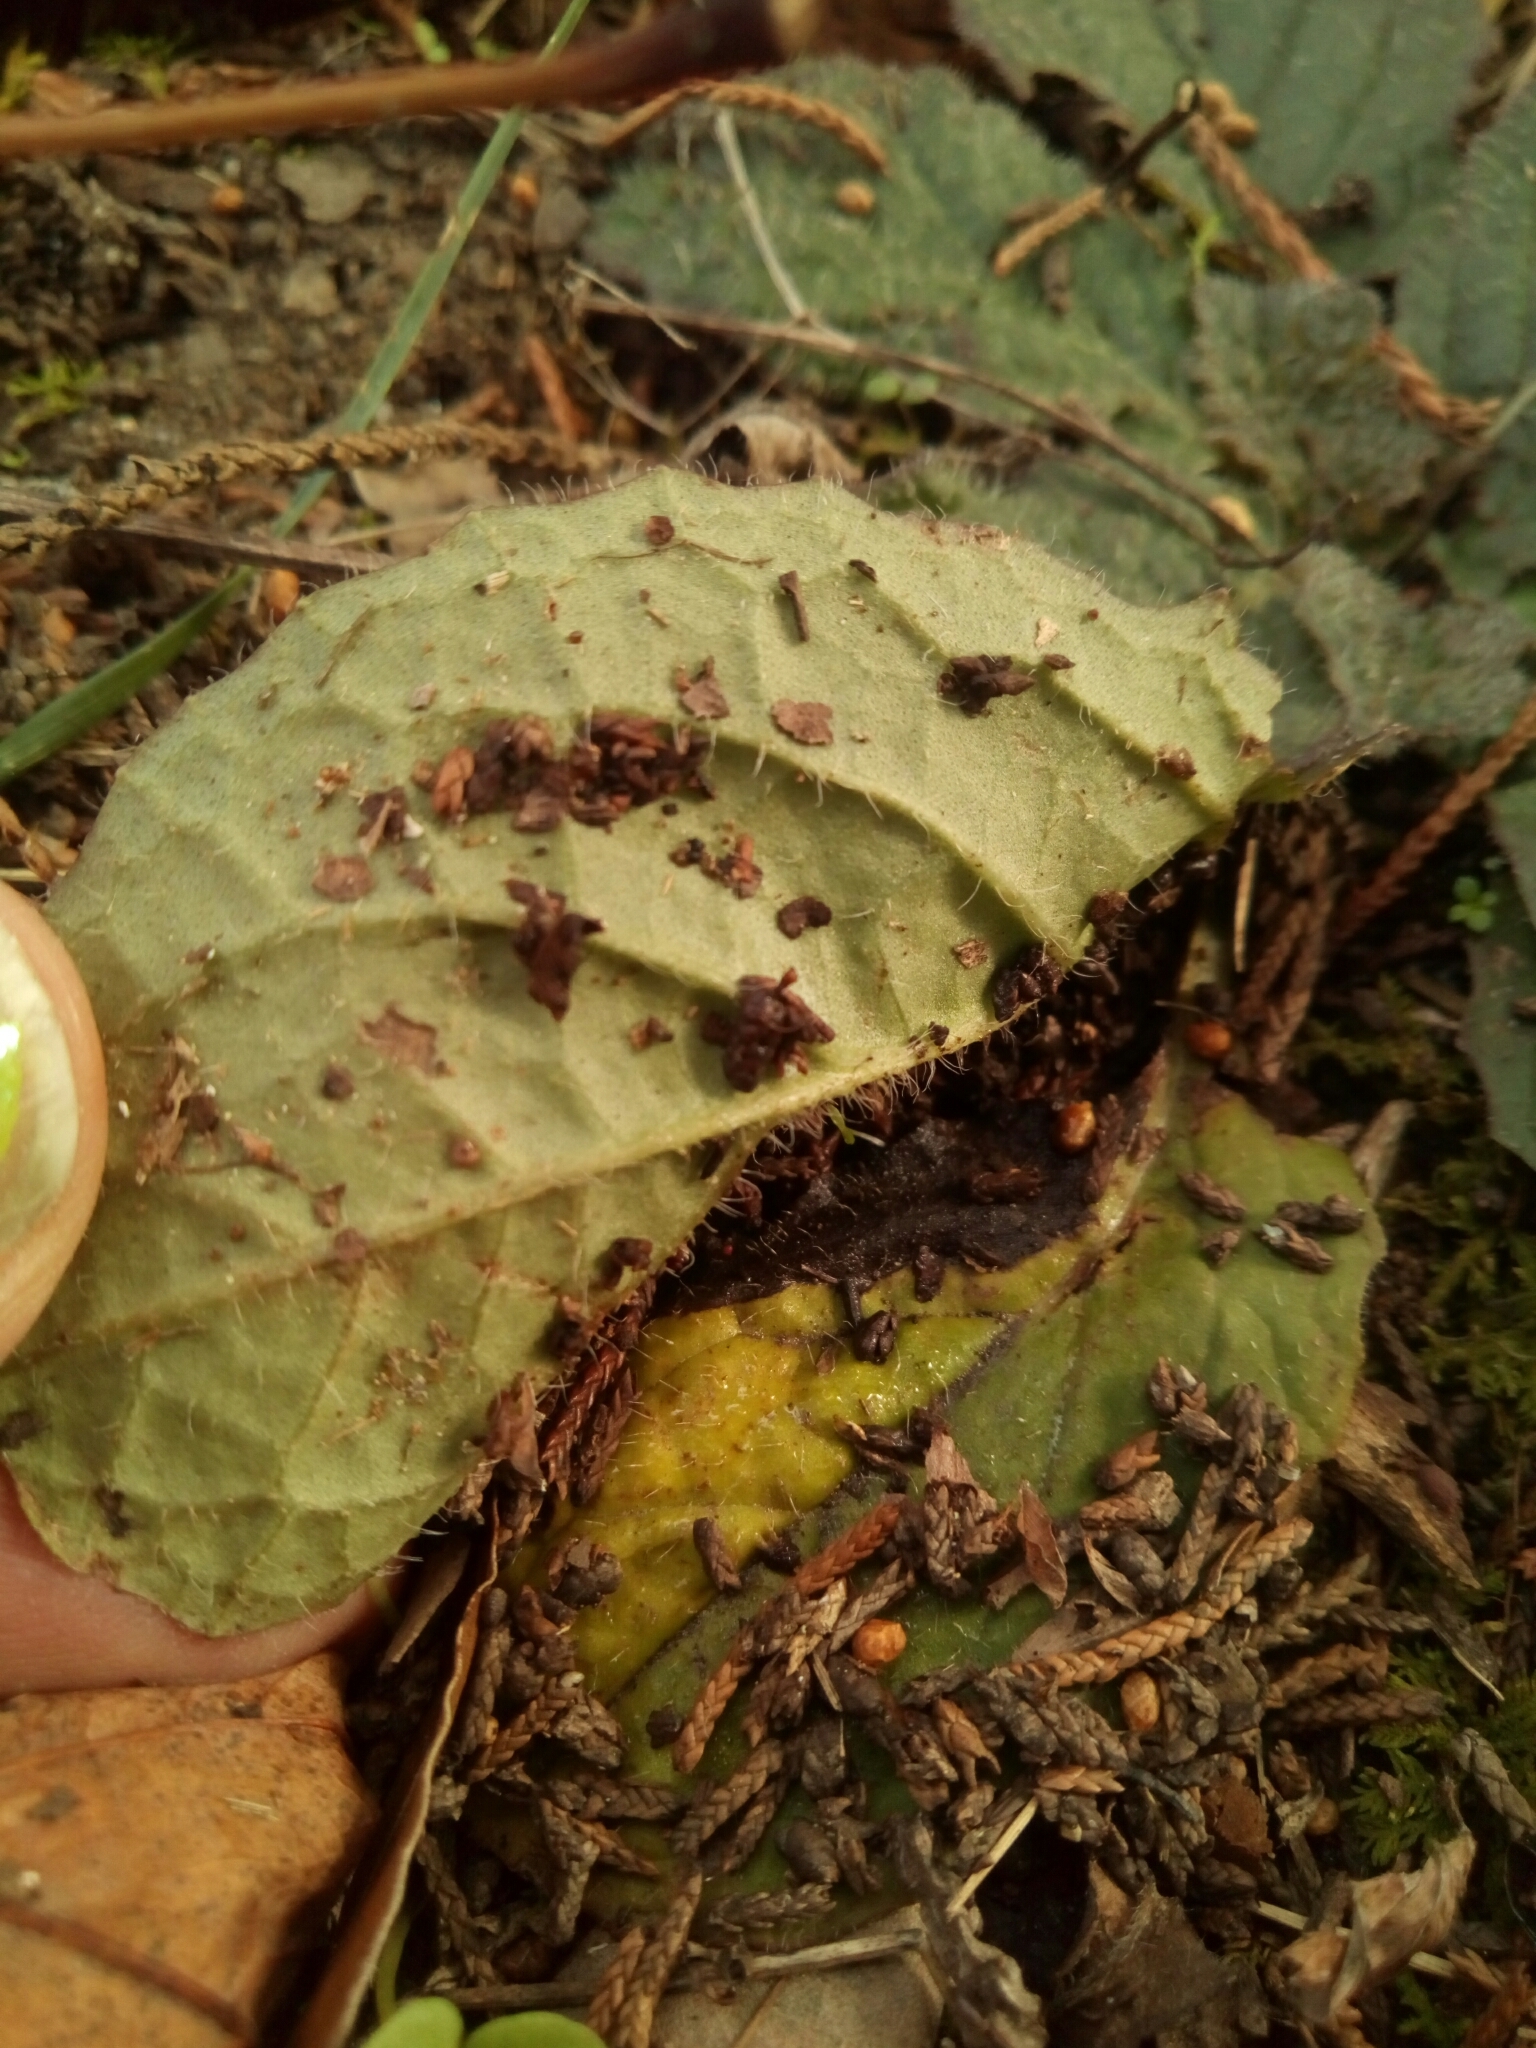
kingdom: Plantae
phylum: Tracheophyta
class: Magnoliopsida
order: Lamiales
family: Lamiaceae
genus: Salvia
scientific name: Salvia lyrata
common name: Cancerweed
